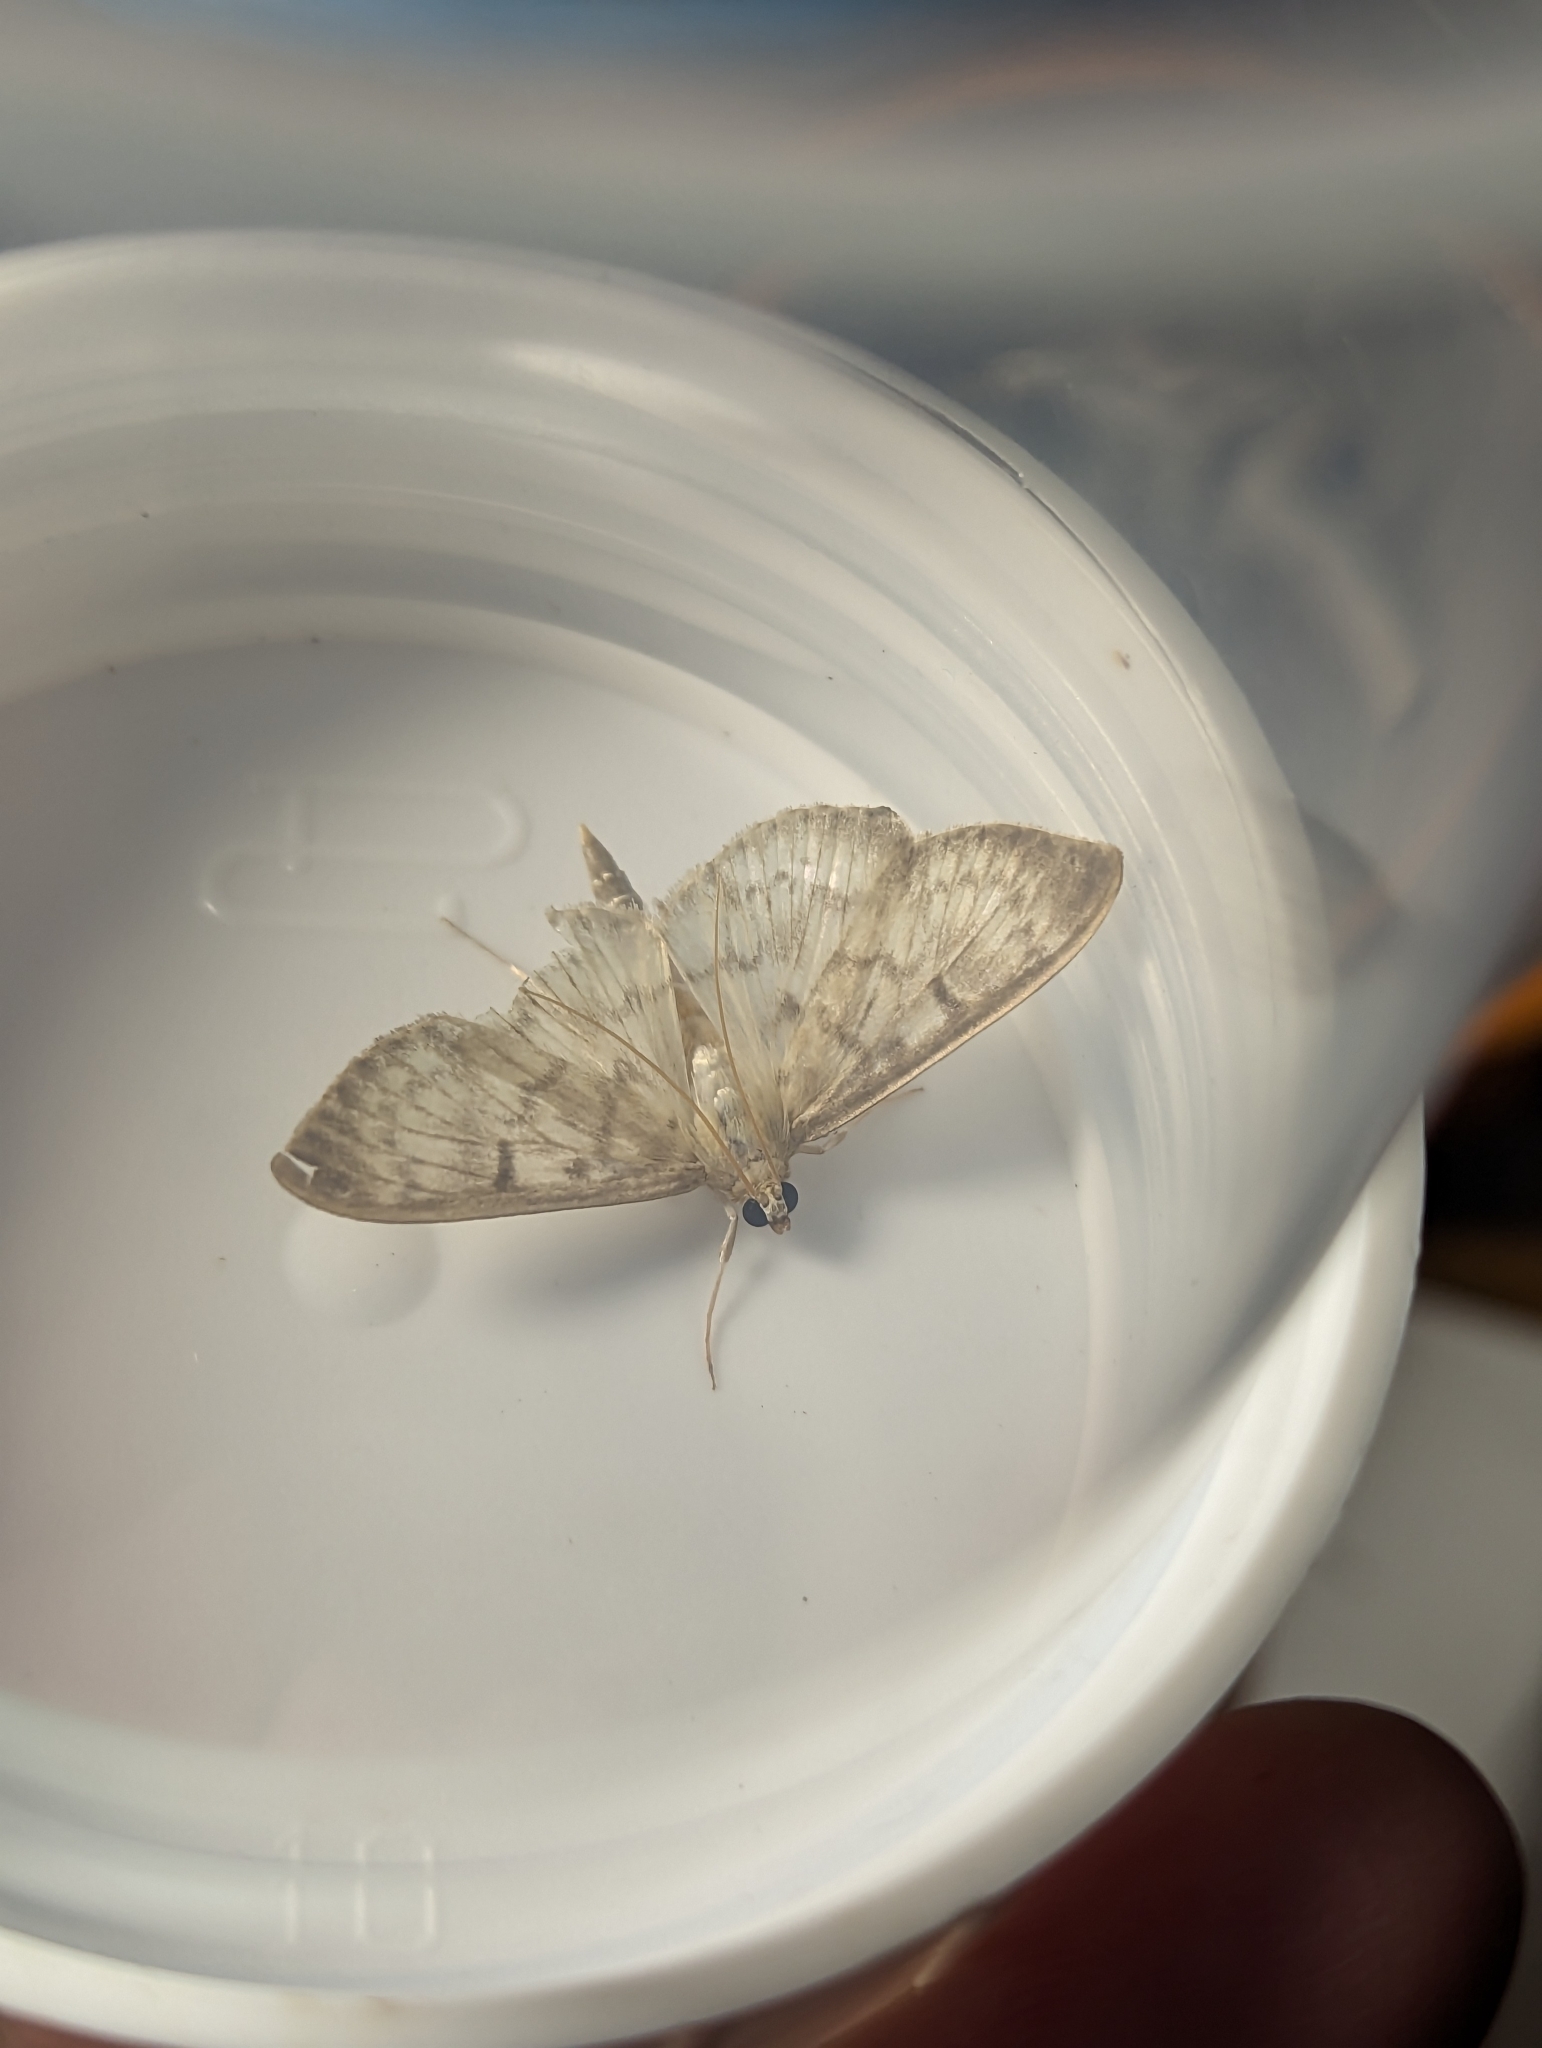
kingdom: Animalia
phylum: Arthropoda
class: Insecta
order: Lepidoptera
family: Crambidae
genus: Patania
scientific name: Patania ruralis
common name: Mother of pearl
